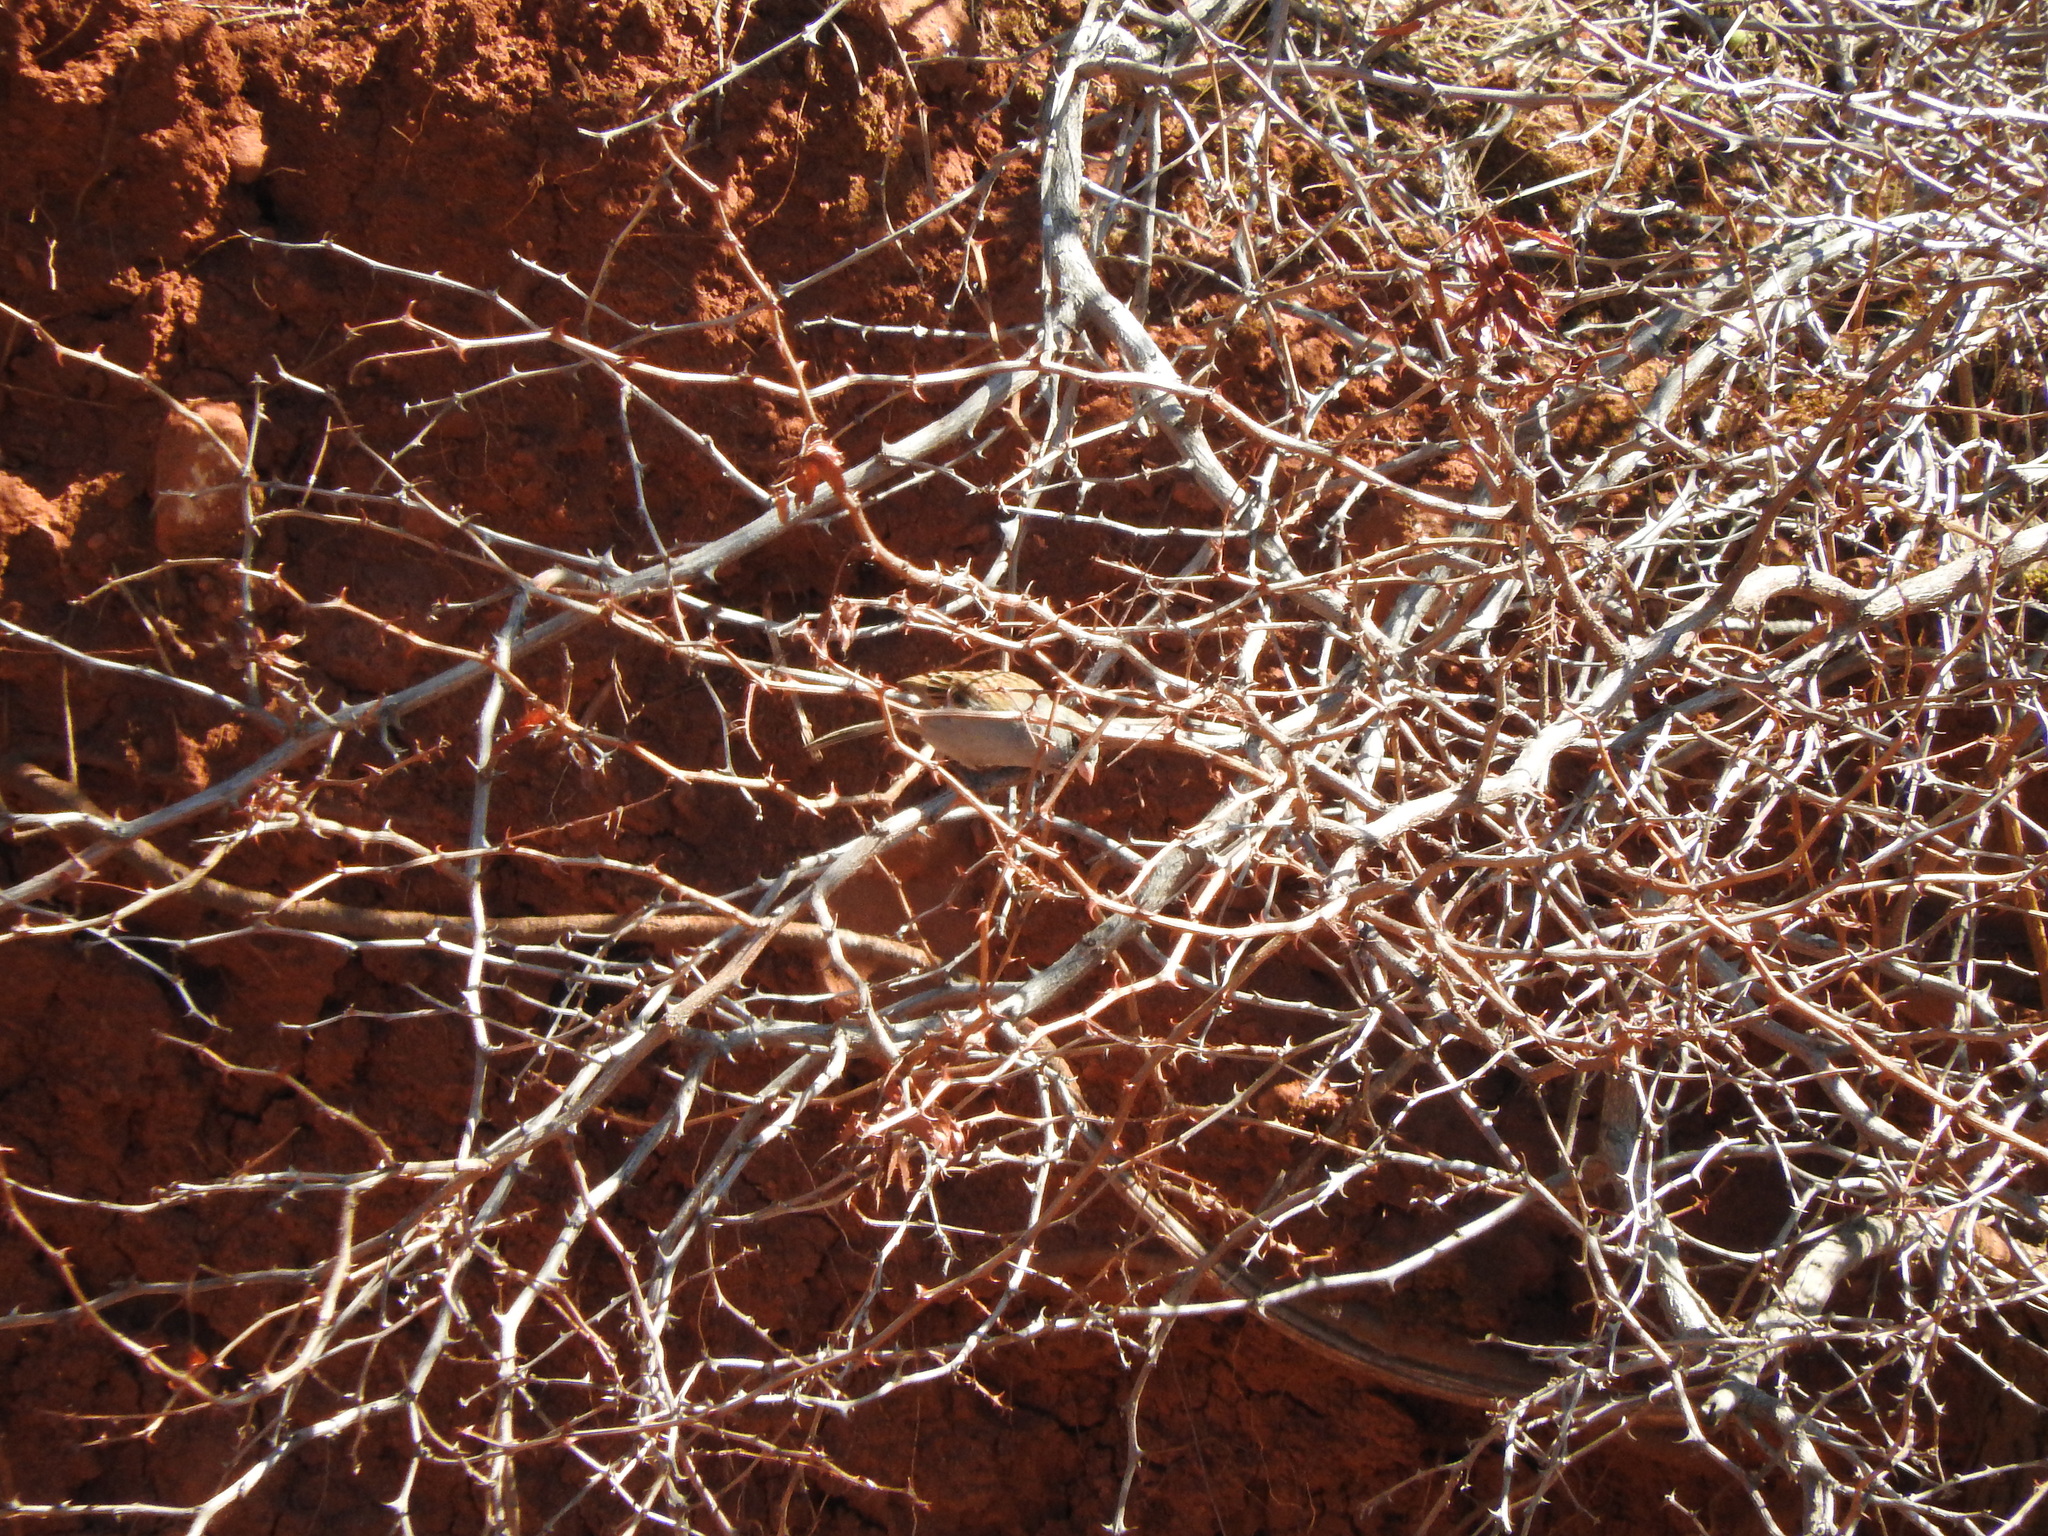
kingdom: Animalia
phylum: Chordata
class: Aves
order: Passeriformes
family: Passerellidae
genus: Spizella
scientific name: Spizella atrogularis
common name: Black-chinned sparrow
